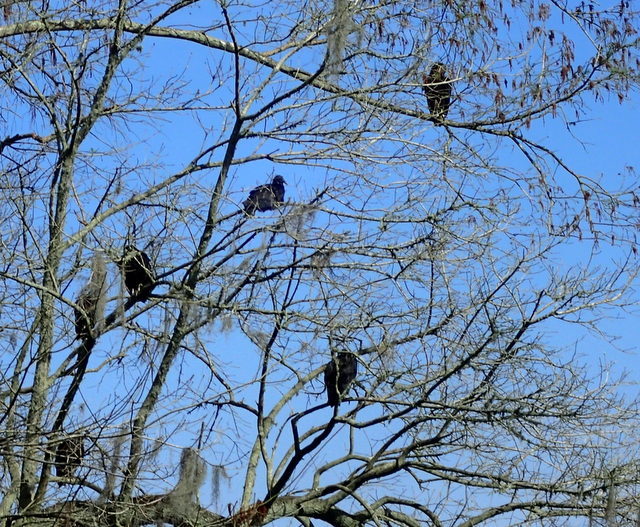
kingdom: Animalia
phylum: Chordata
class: Aves
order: Accipitriformes
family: Cathartidae
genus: Coragyps
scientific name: Coragyps atratus
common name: Black vulture
